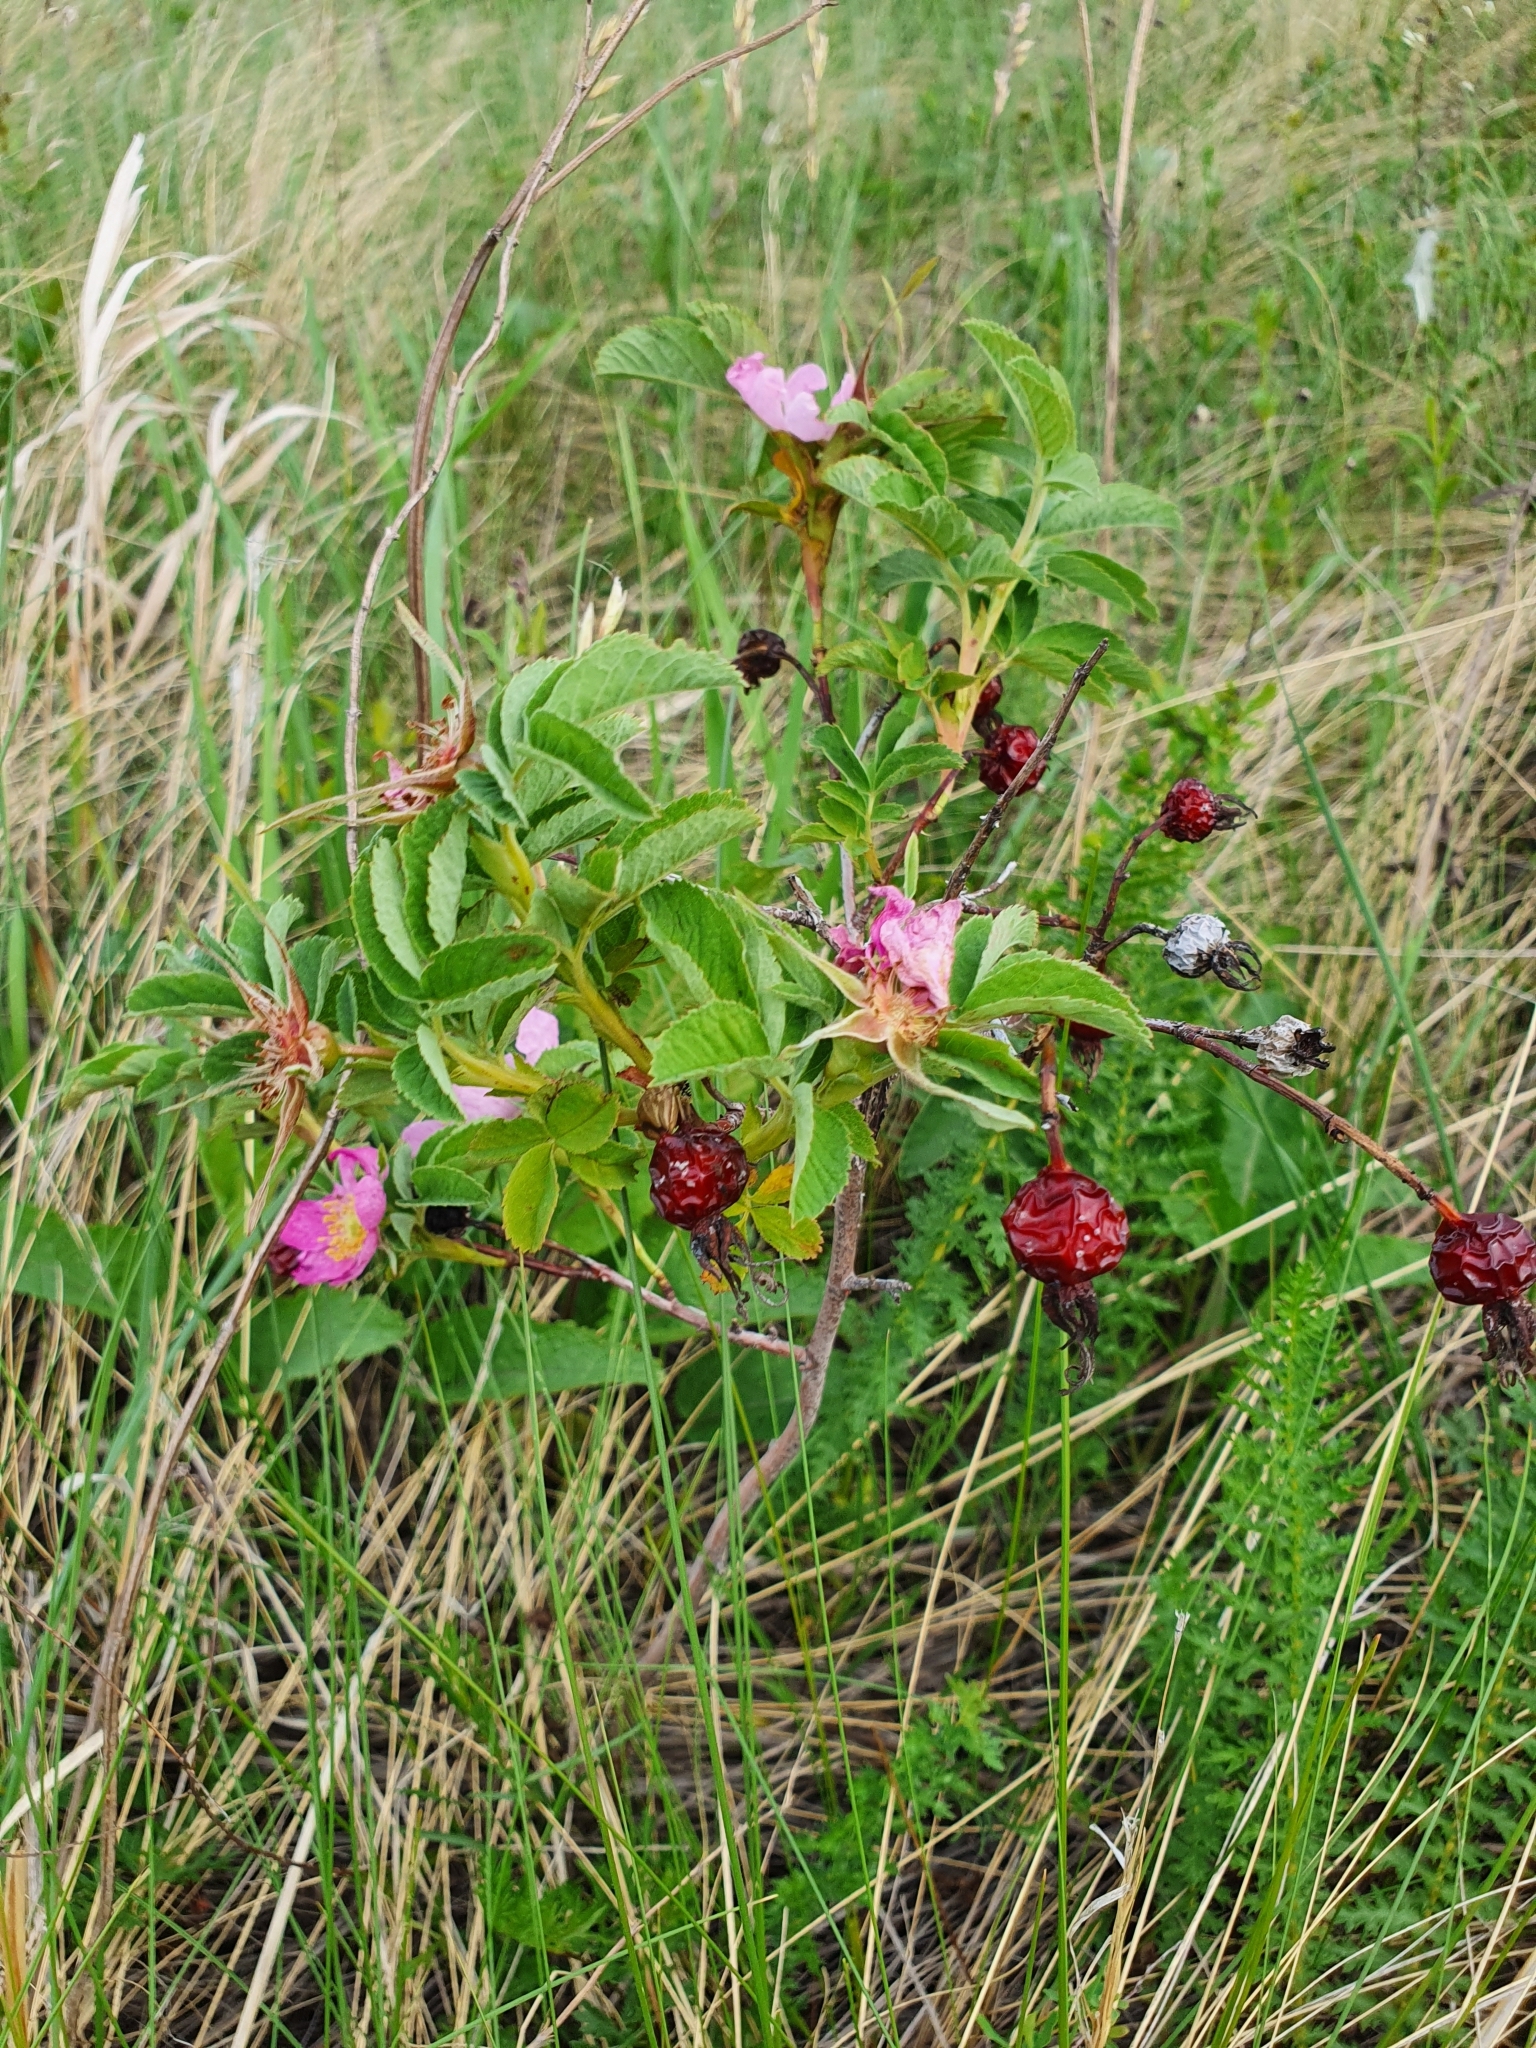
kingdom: Plantae
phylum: Tracheophyta
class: Magnoliopsida
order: Rosales
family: Rosaceae
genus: Rosa
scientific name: Rosa majalis
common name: Cinnamon rose
